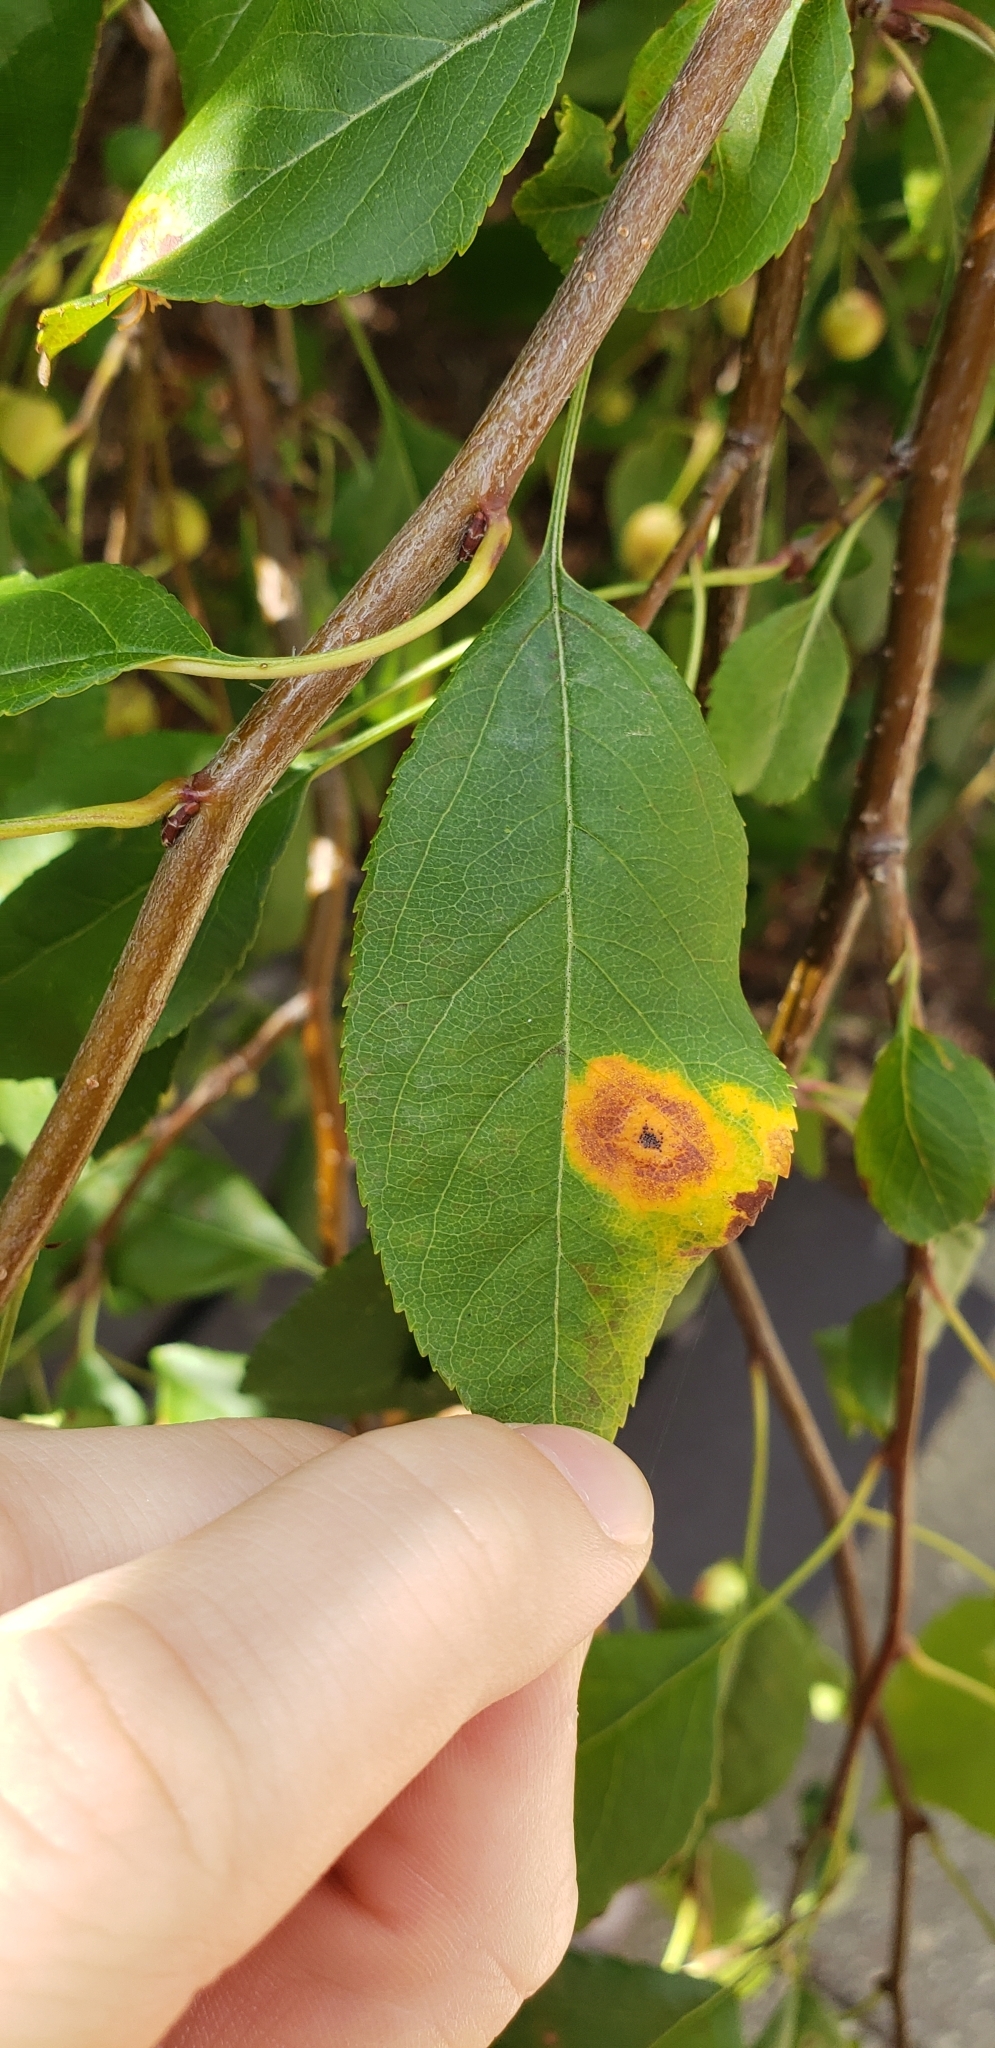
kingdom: Fungi
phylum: Basidiomycota
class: Pucciniomycetes
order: Pucciniales
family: Gymnosporangiaceae
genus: Gymnosporangium
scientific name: Gymnosporangium juniperi-virginianae
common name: Juniper-apple rust
